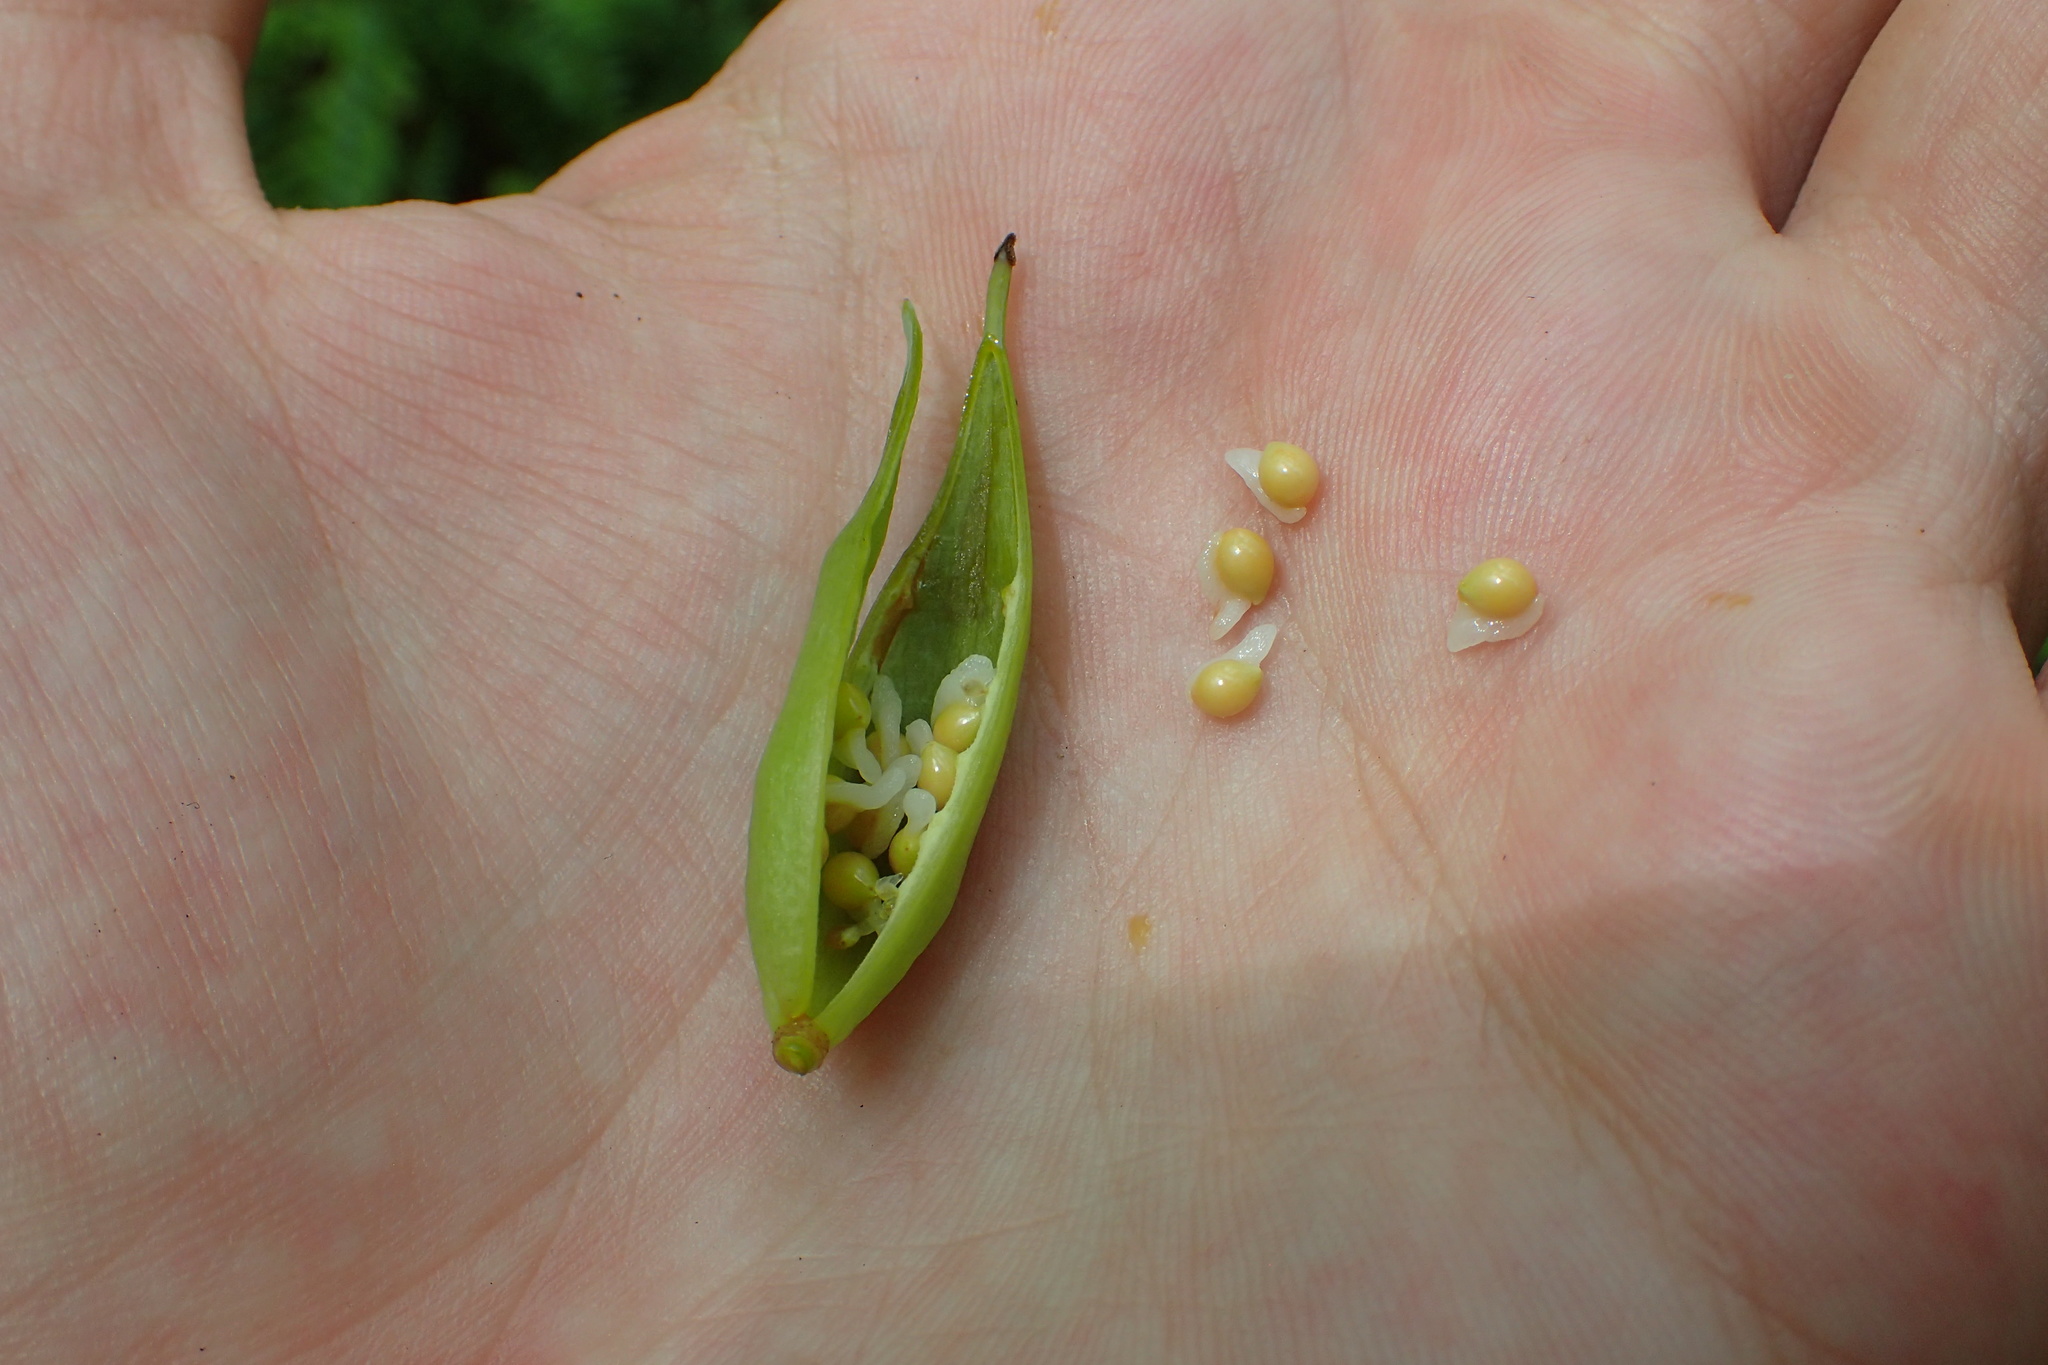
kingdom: Plantae
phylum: Tracheophyta
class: Magnoliopsida
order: Ranunculales
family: Papaveraceae
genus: Sanguinaria
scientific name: Sanguinaria canadensis
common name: Bloodroot
